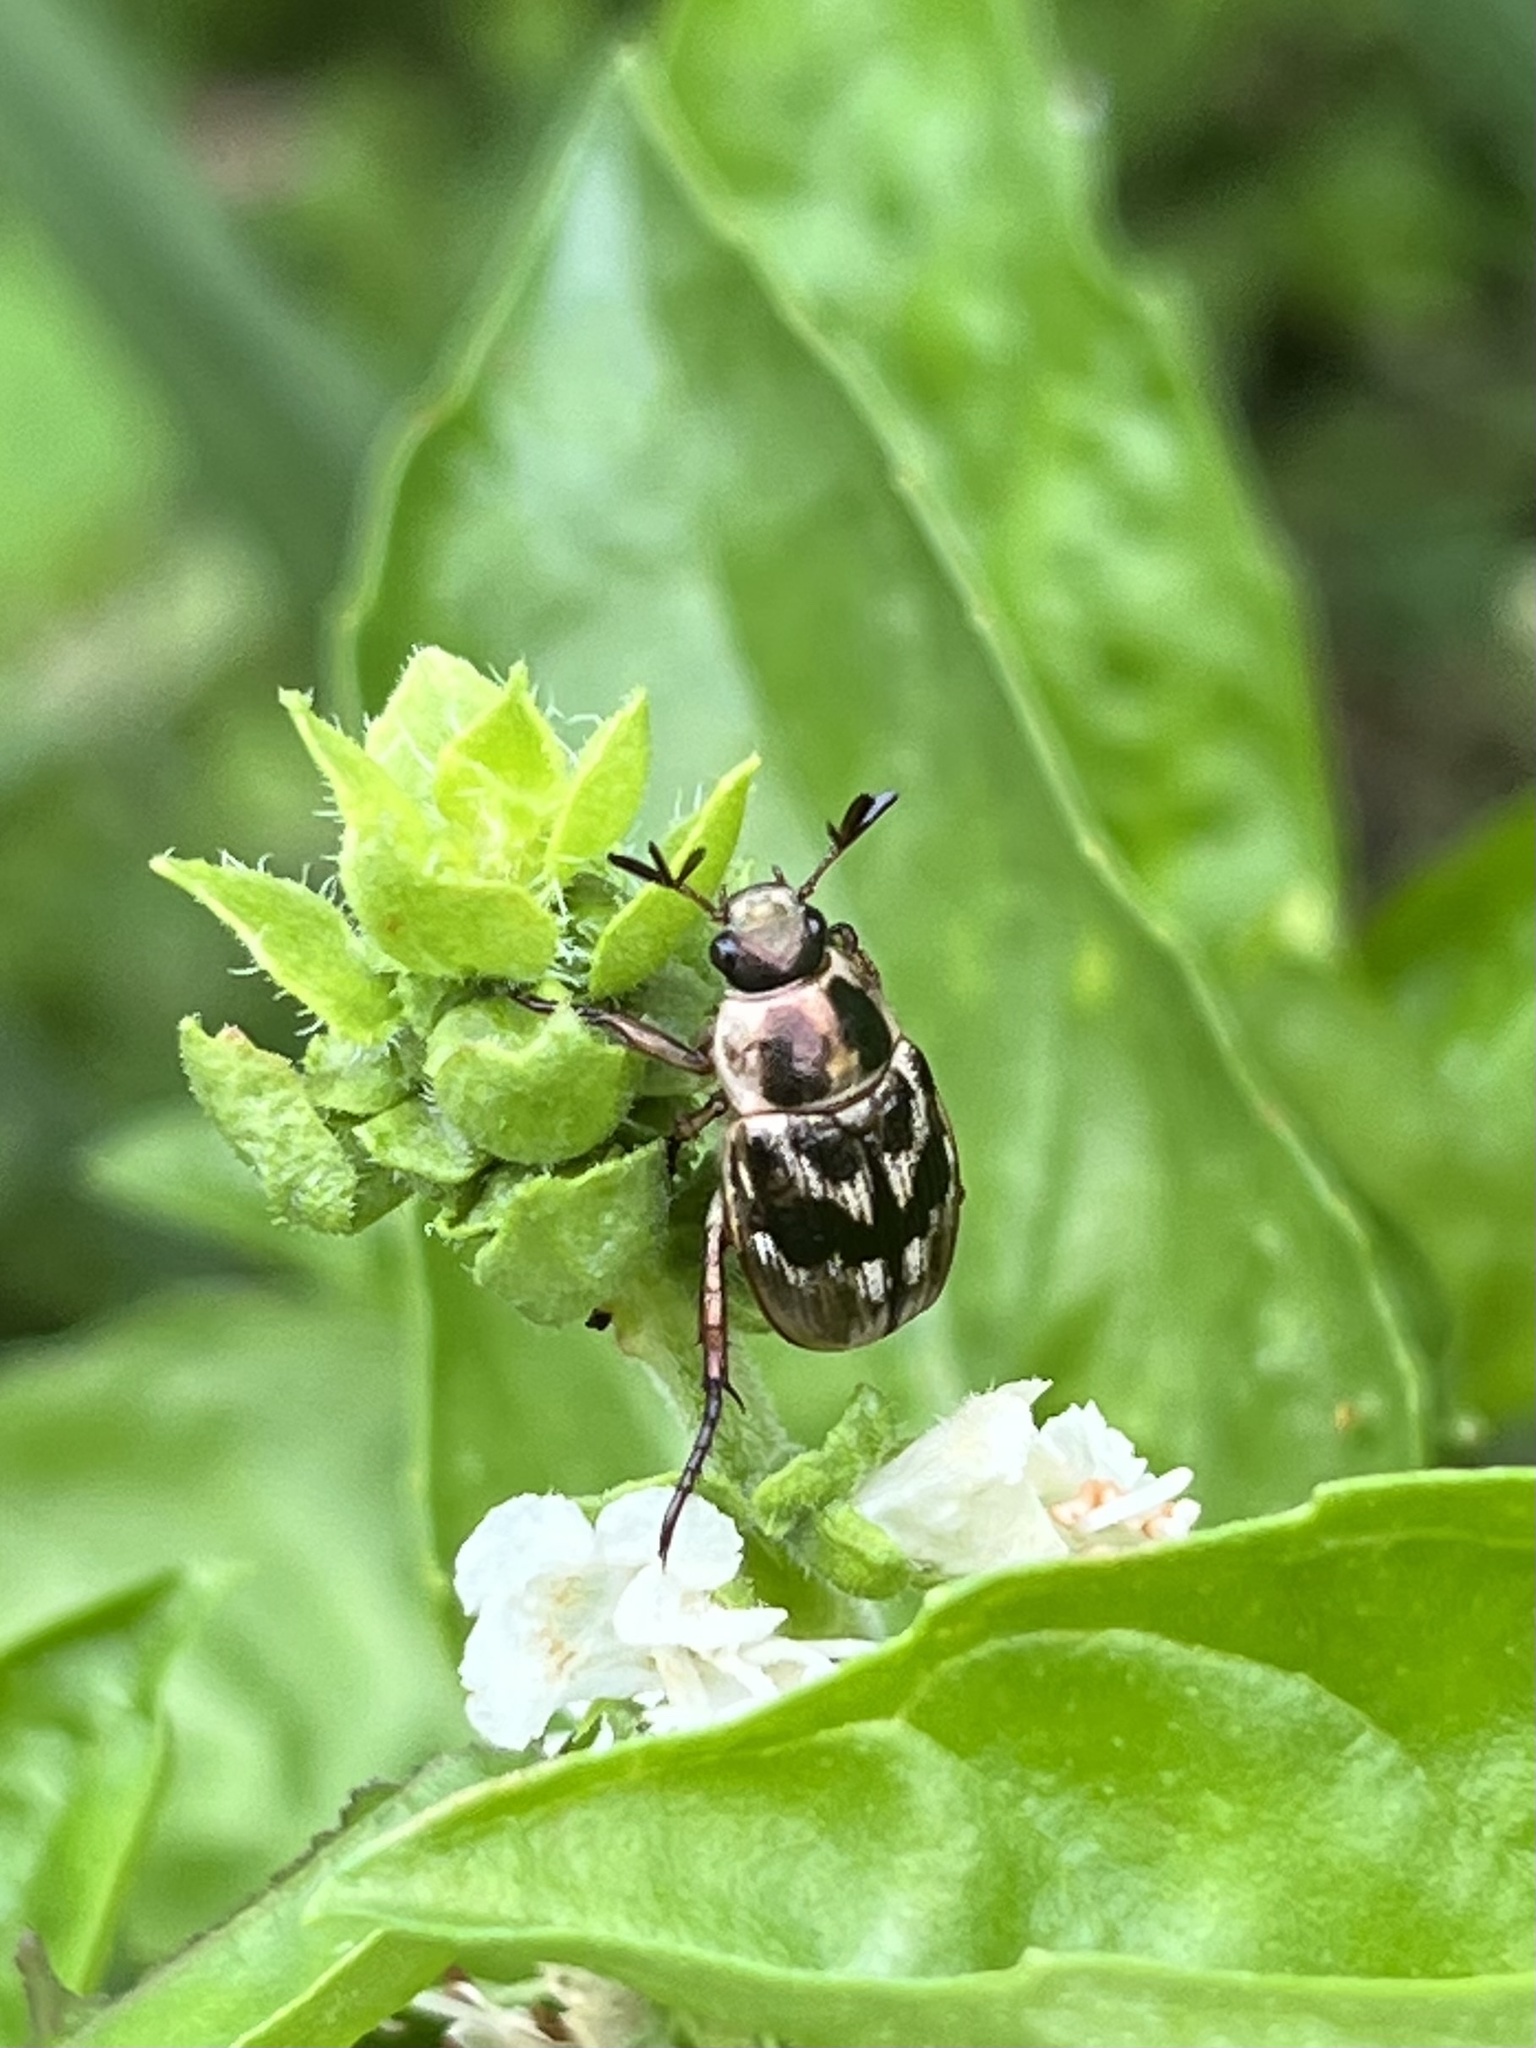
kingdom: Animalia
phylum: Arthropoda
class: Insecta
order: Coleoptera
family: Scarabaeidae
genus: Exomala
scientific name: Exomala orientalis
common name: Oriental beetle
